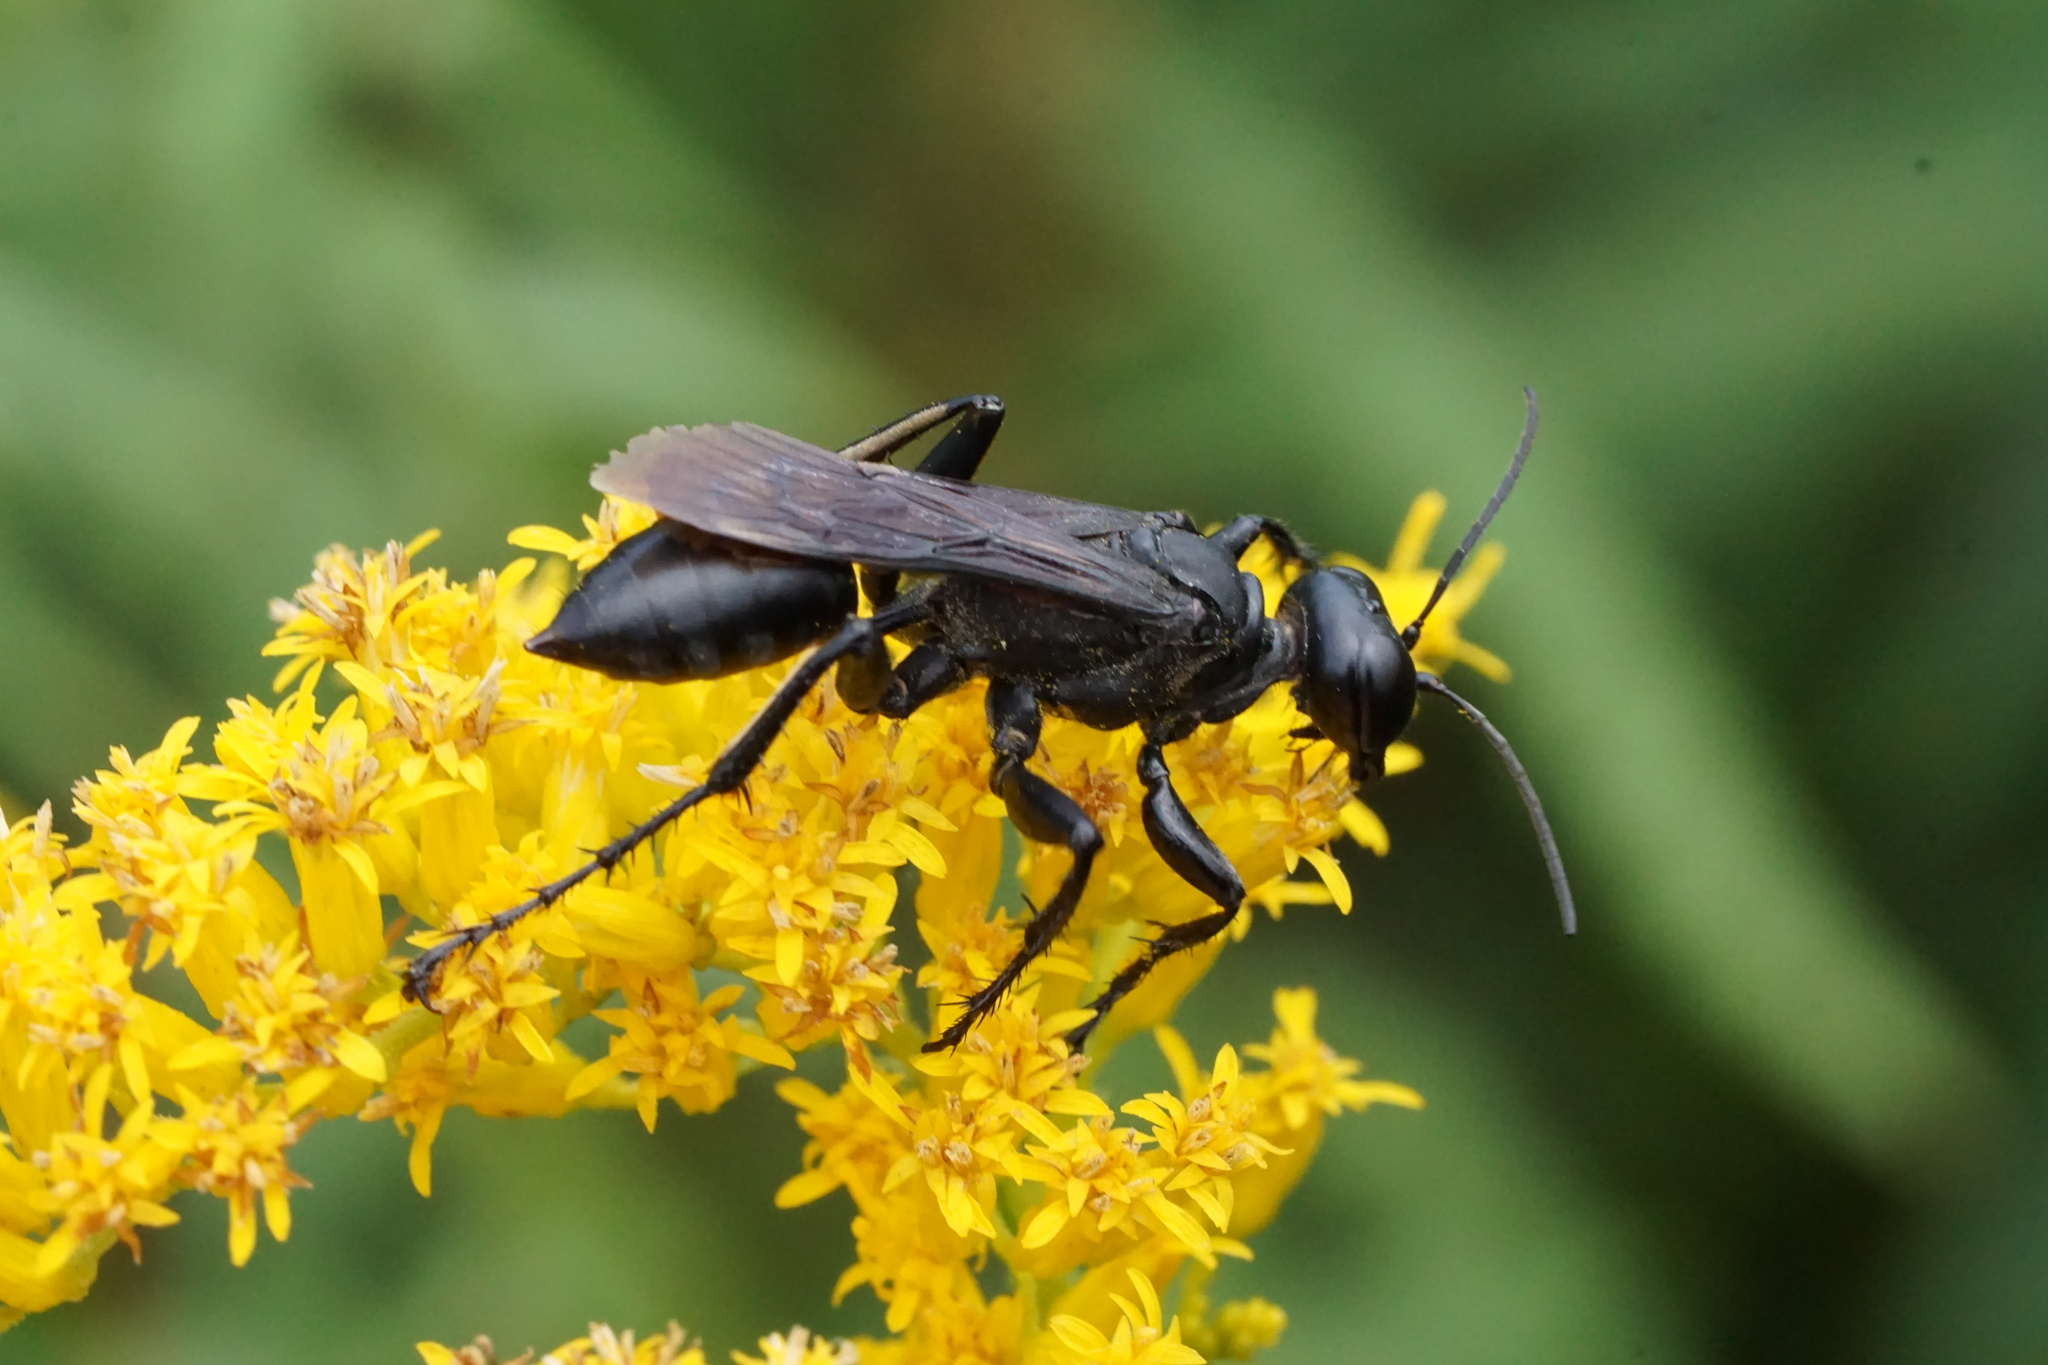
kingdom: Animalia
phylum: Arthropoda
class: Insecta
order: Hymenoptera
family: Sphecidae
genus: Prionyx
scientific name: Prionyx atratus
